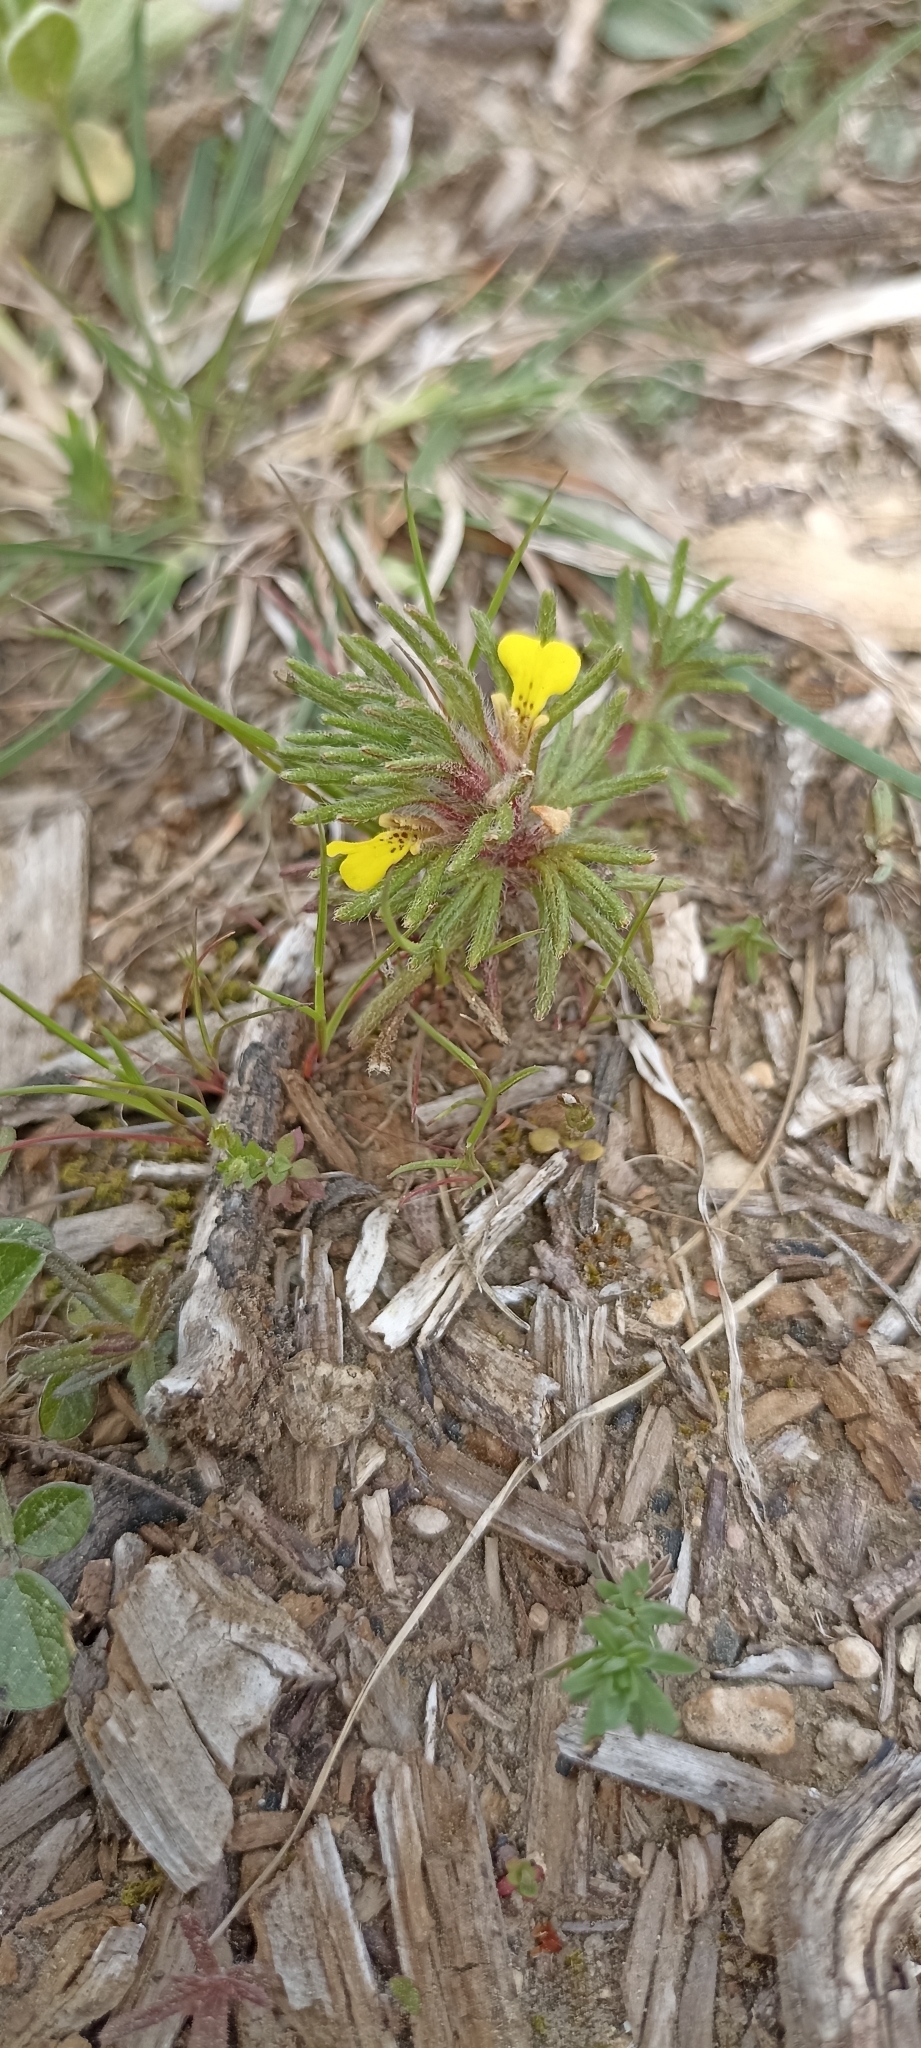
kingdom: Plantae
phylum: Tracheophyta
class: Magnoliopsida
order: Lamiales
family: Lamiaceae
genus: Ajuga
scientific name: Ajuga chamaepitys
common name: Ground-pine
